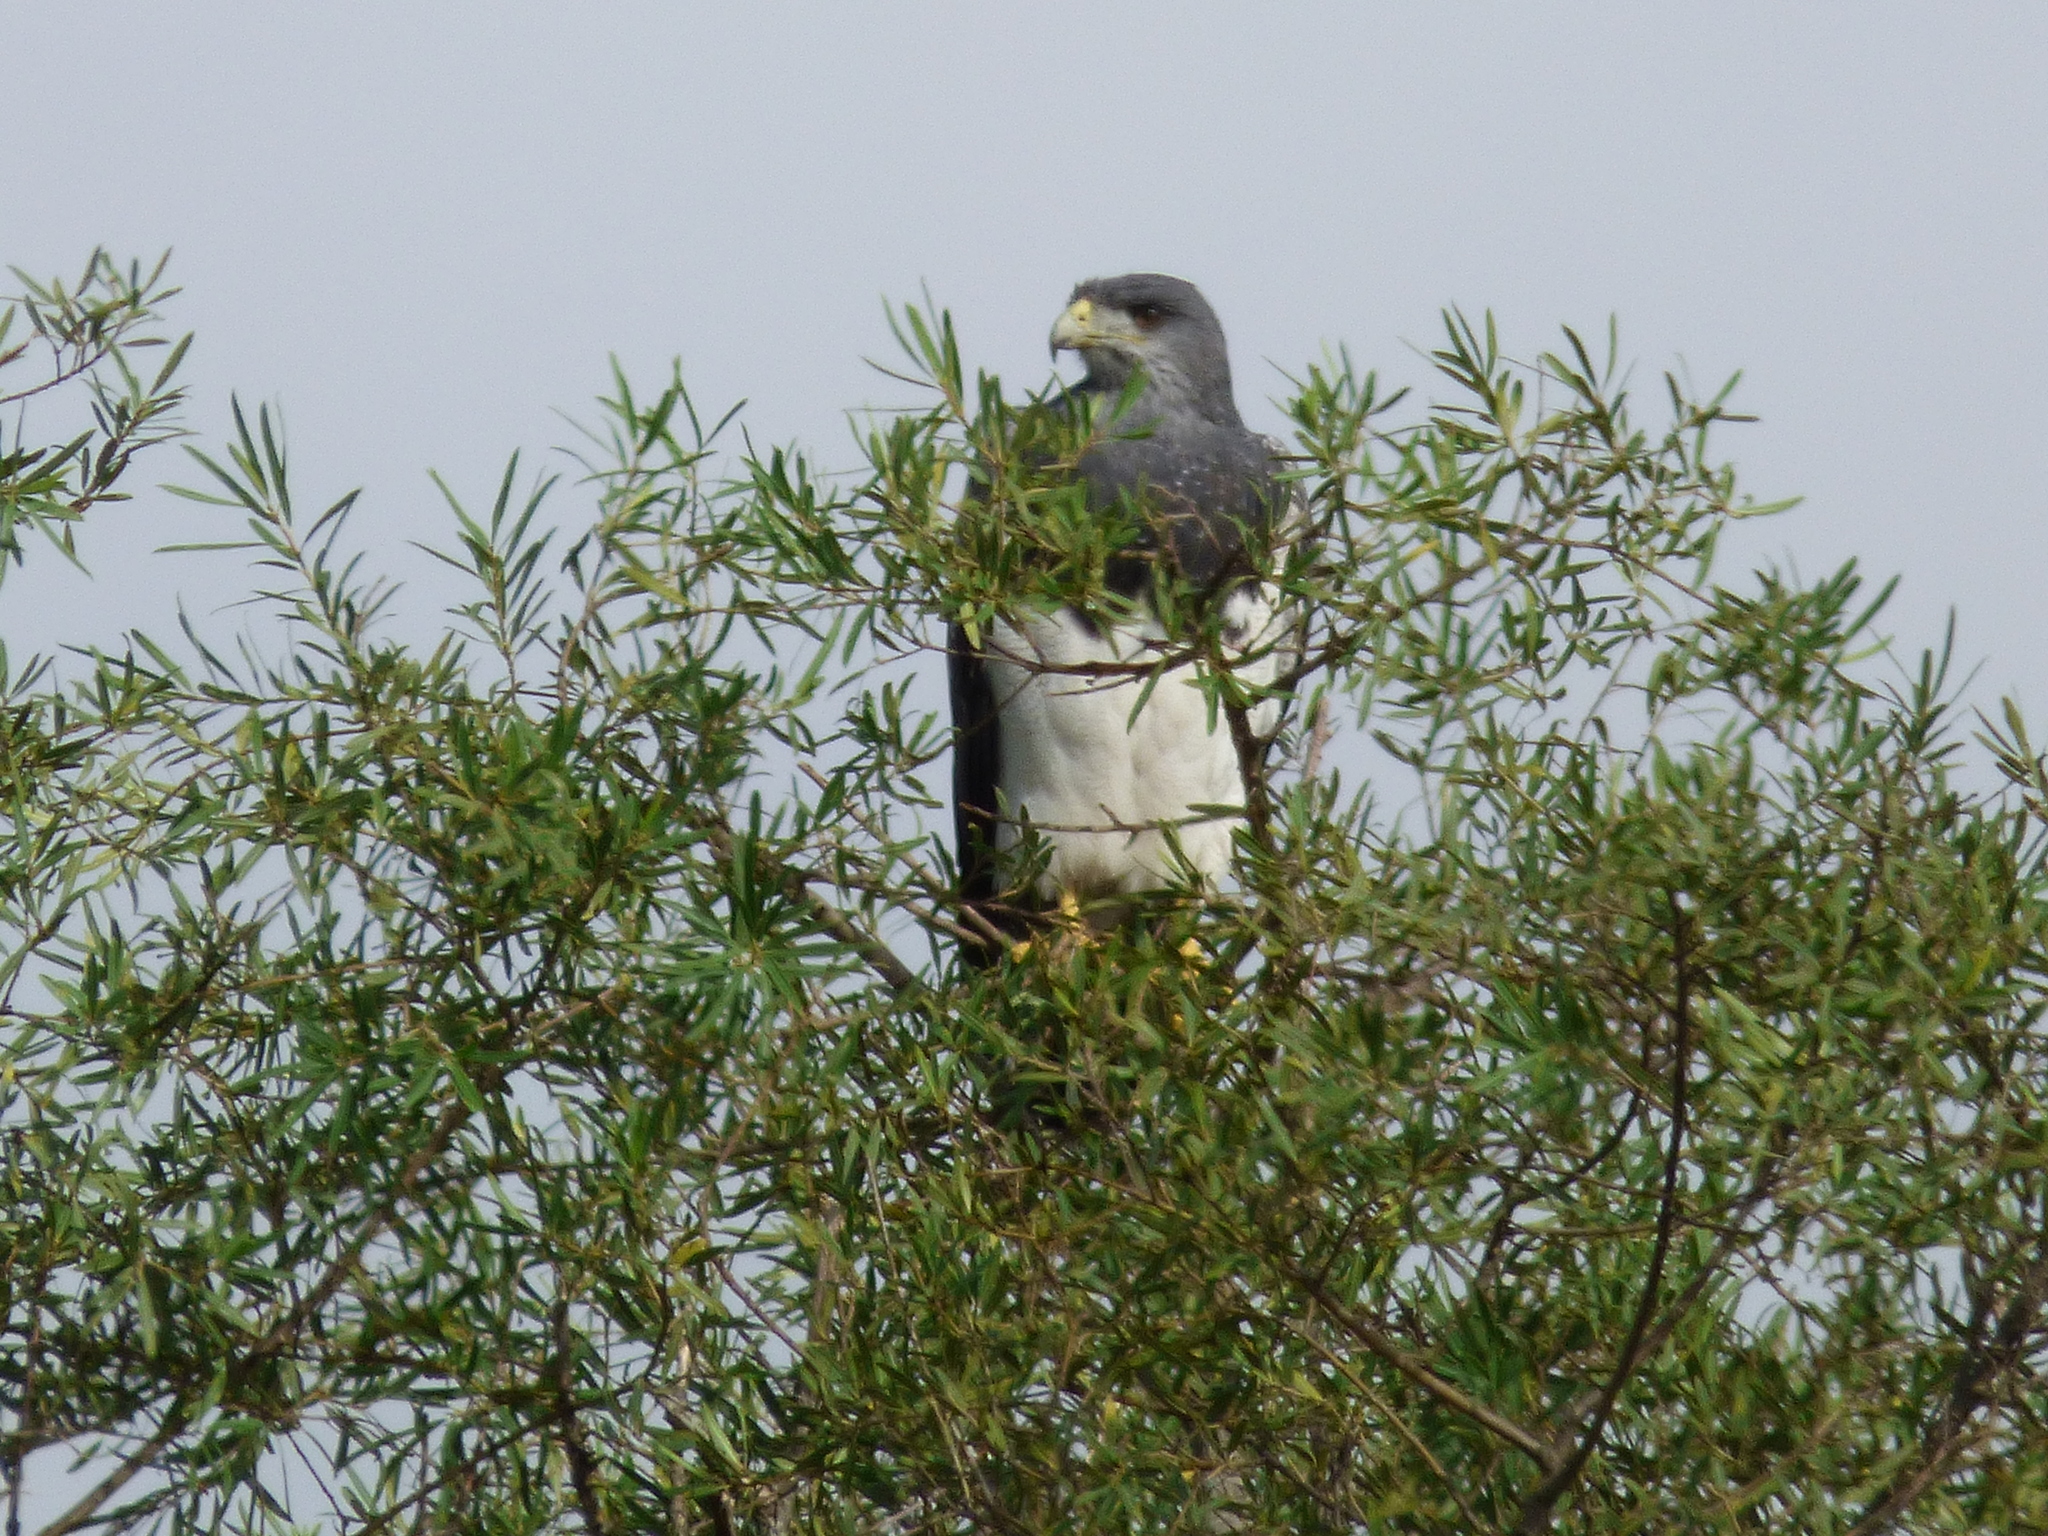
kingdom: Animalia
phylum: Chordata
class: Aves
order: Accipitriformes
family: Accipitridae
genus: Geranoaetus
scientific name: Geranoaetus melanoleucus
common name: Black-chested buzzard-eagle
